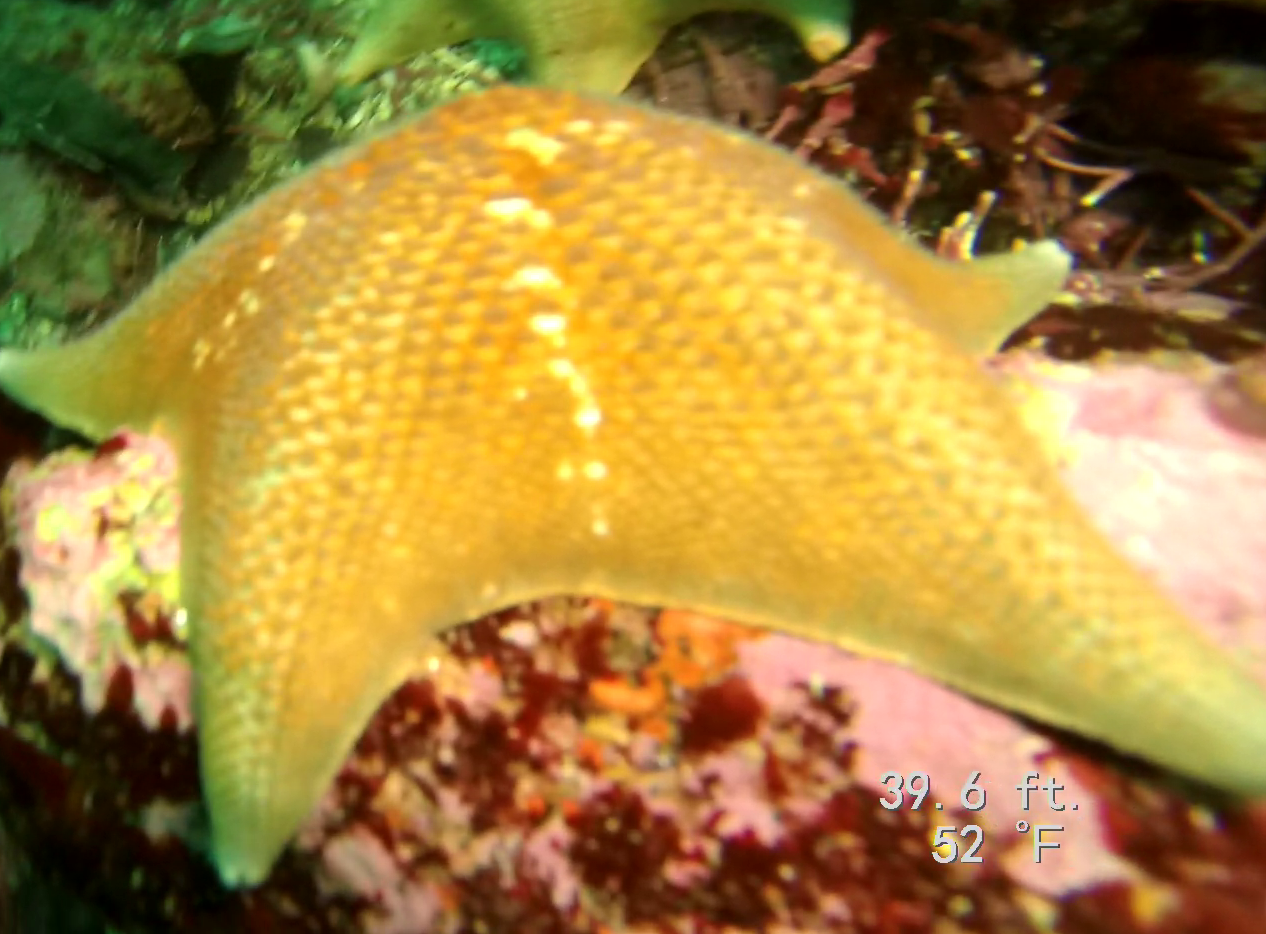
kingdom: Animalia
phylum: Echinodermata
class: Asteroidea
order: Valvatida
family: Asterinidae
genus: Patiria
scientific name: Patiria miniata
